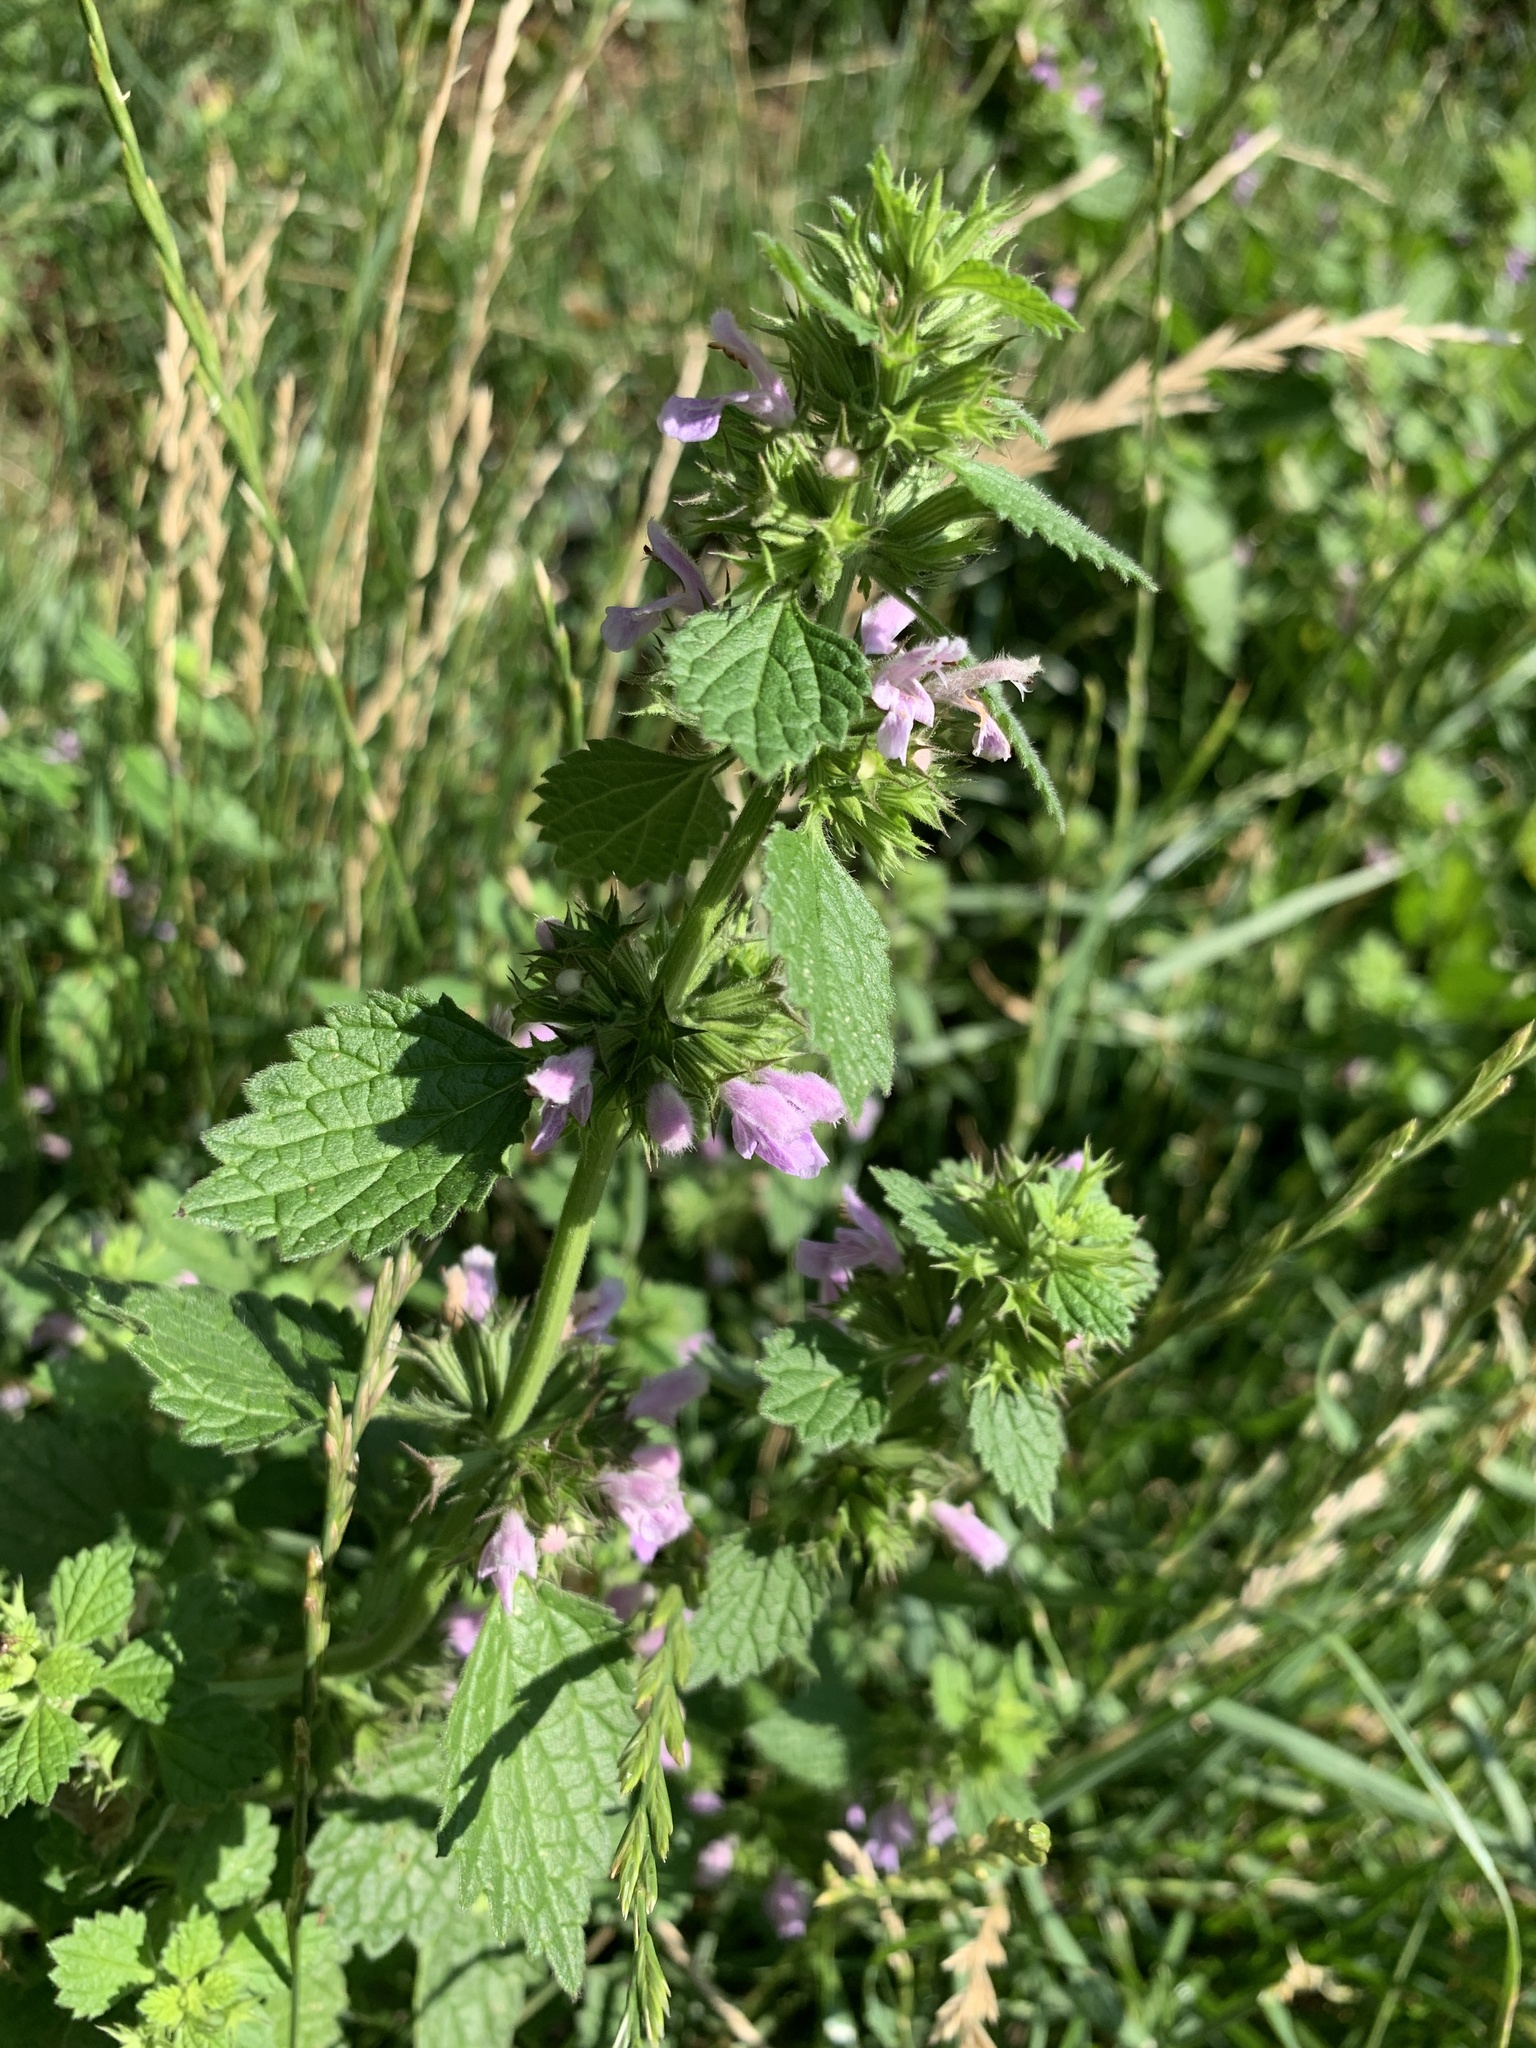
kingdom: Plantae
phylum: Tracheophyta
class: Magnoliopsida
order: Lamiales
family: Lamiaceae
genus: Ballota
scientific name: Ballota nigra
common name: Black horehound
